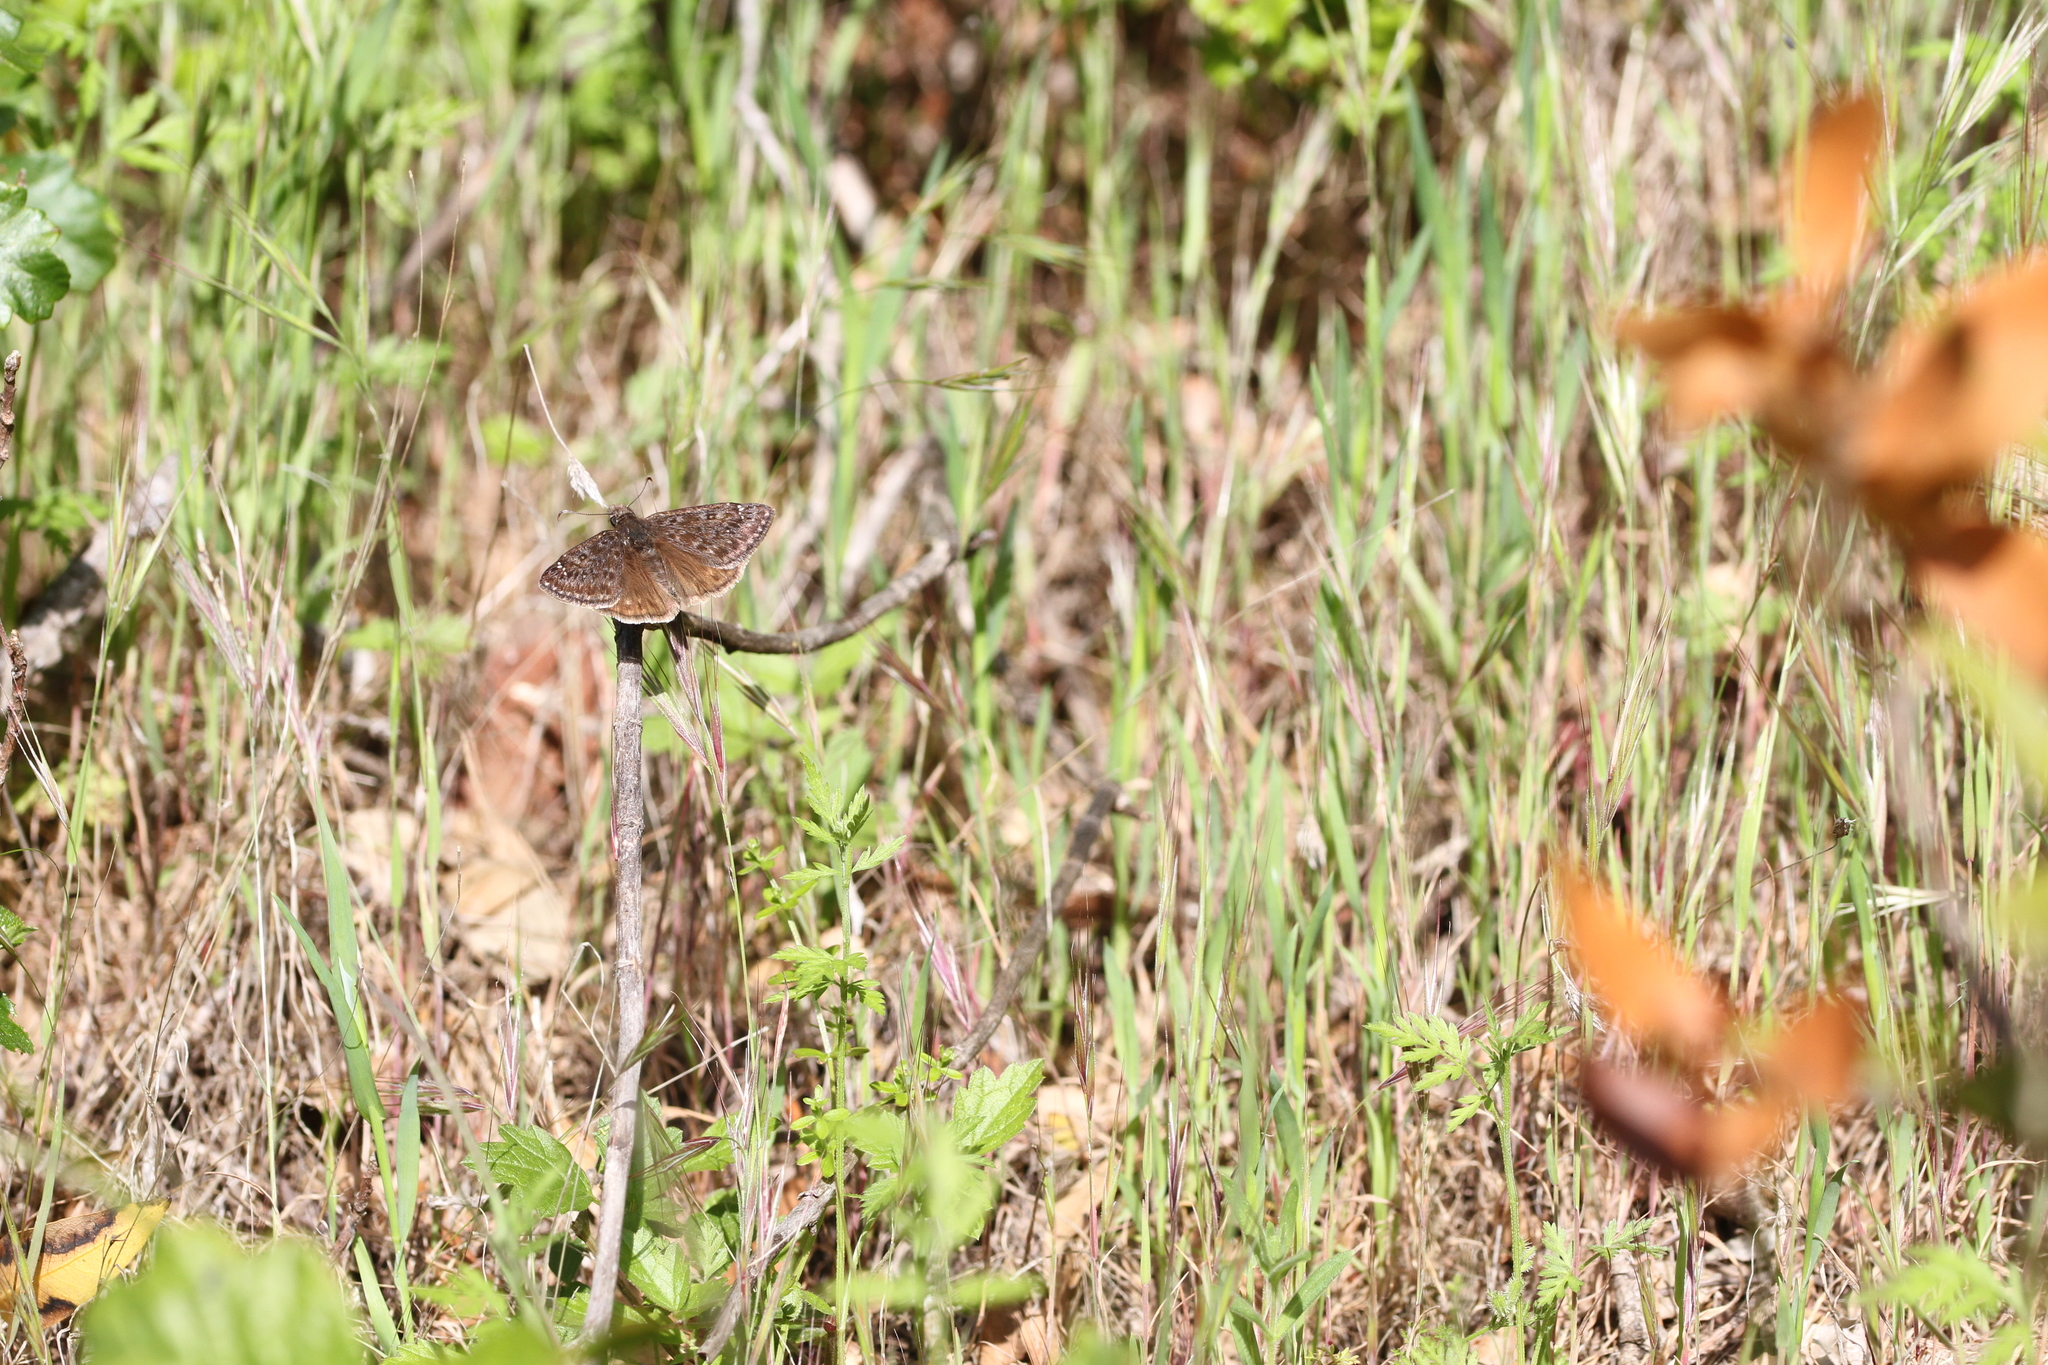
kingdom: Animalia
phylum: Arthropoda
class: Insecta
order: Lepidoptera
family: Hesperiidae
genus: Erynnis
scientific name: Erynnis propertius
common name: Propertius duskywing
